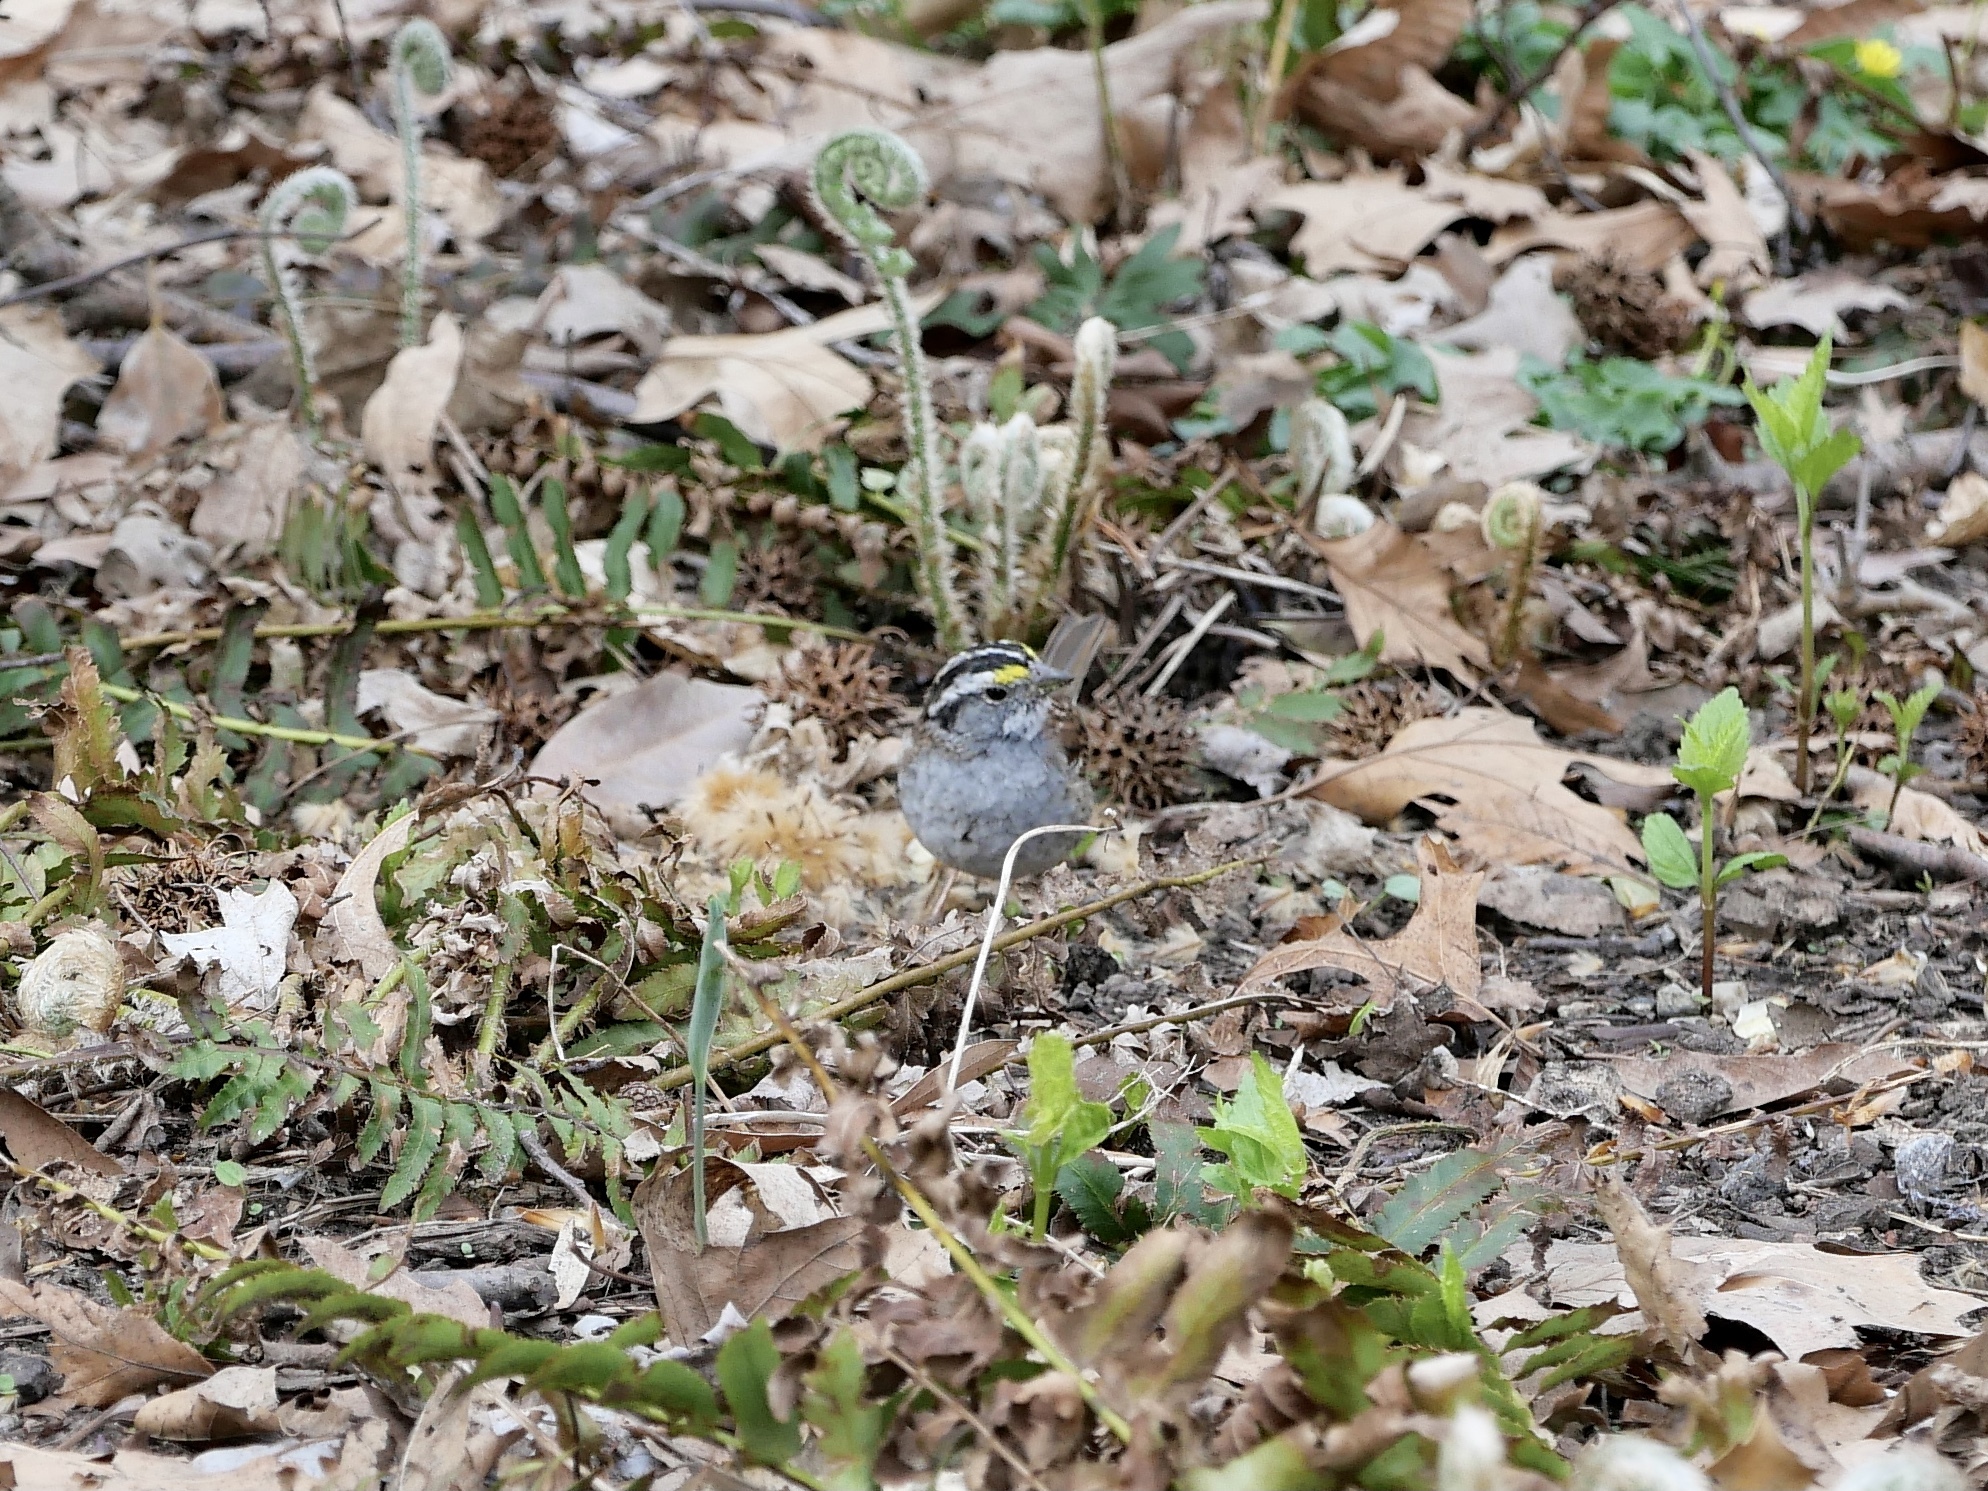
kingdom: Animalia
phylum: Chordata
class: Aves
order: Passeriformes
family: Passerellidae
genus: Zonotrichia
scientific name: Zonotrichia albicollis
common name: White-throated sparrow
